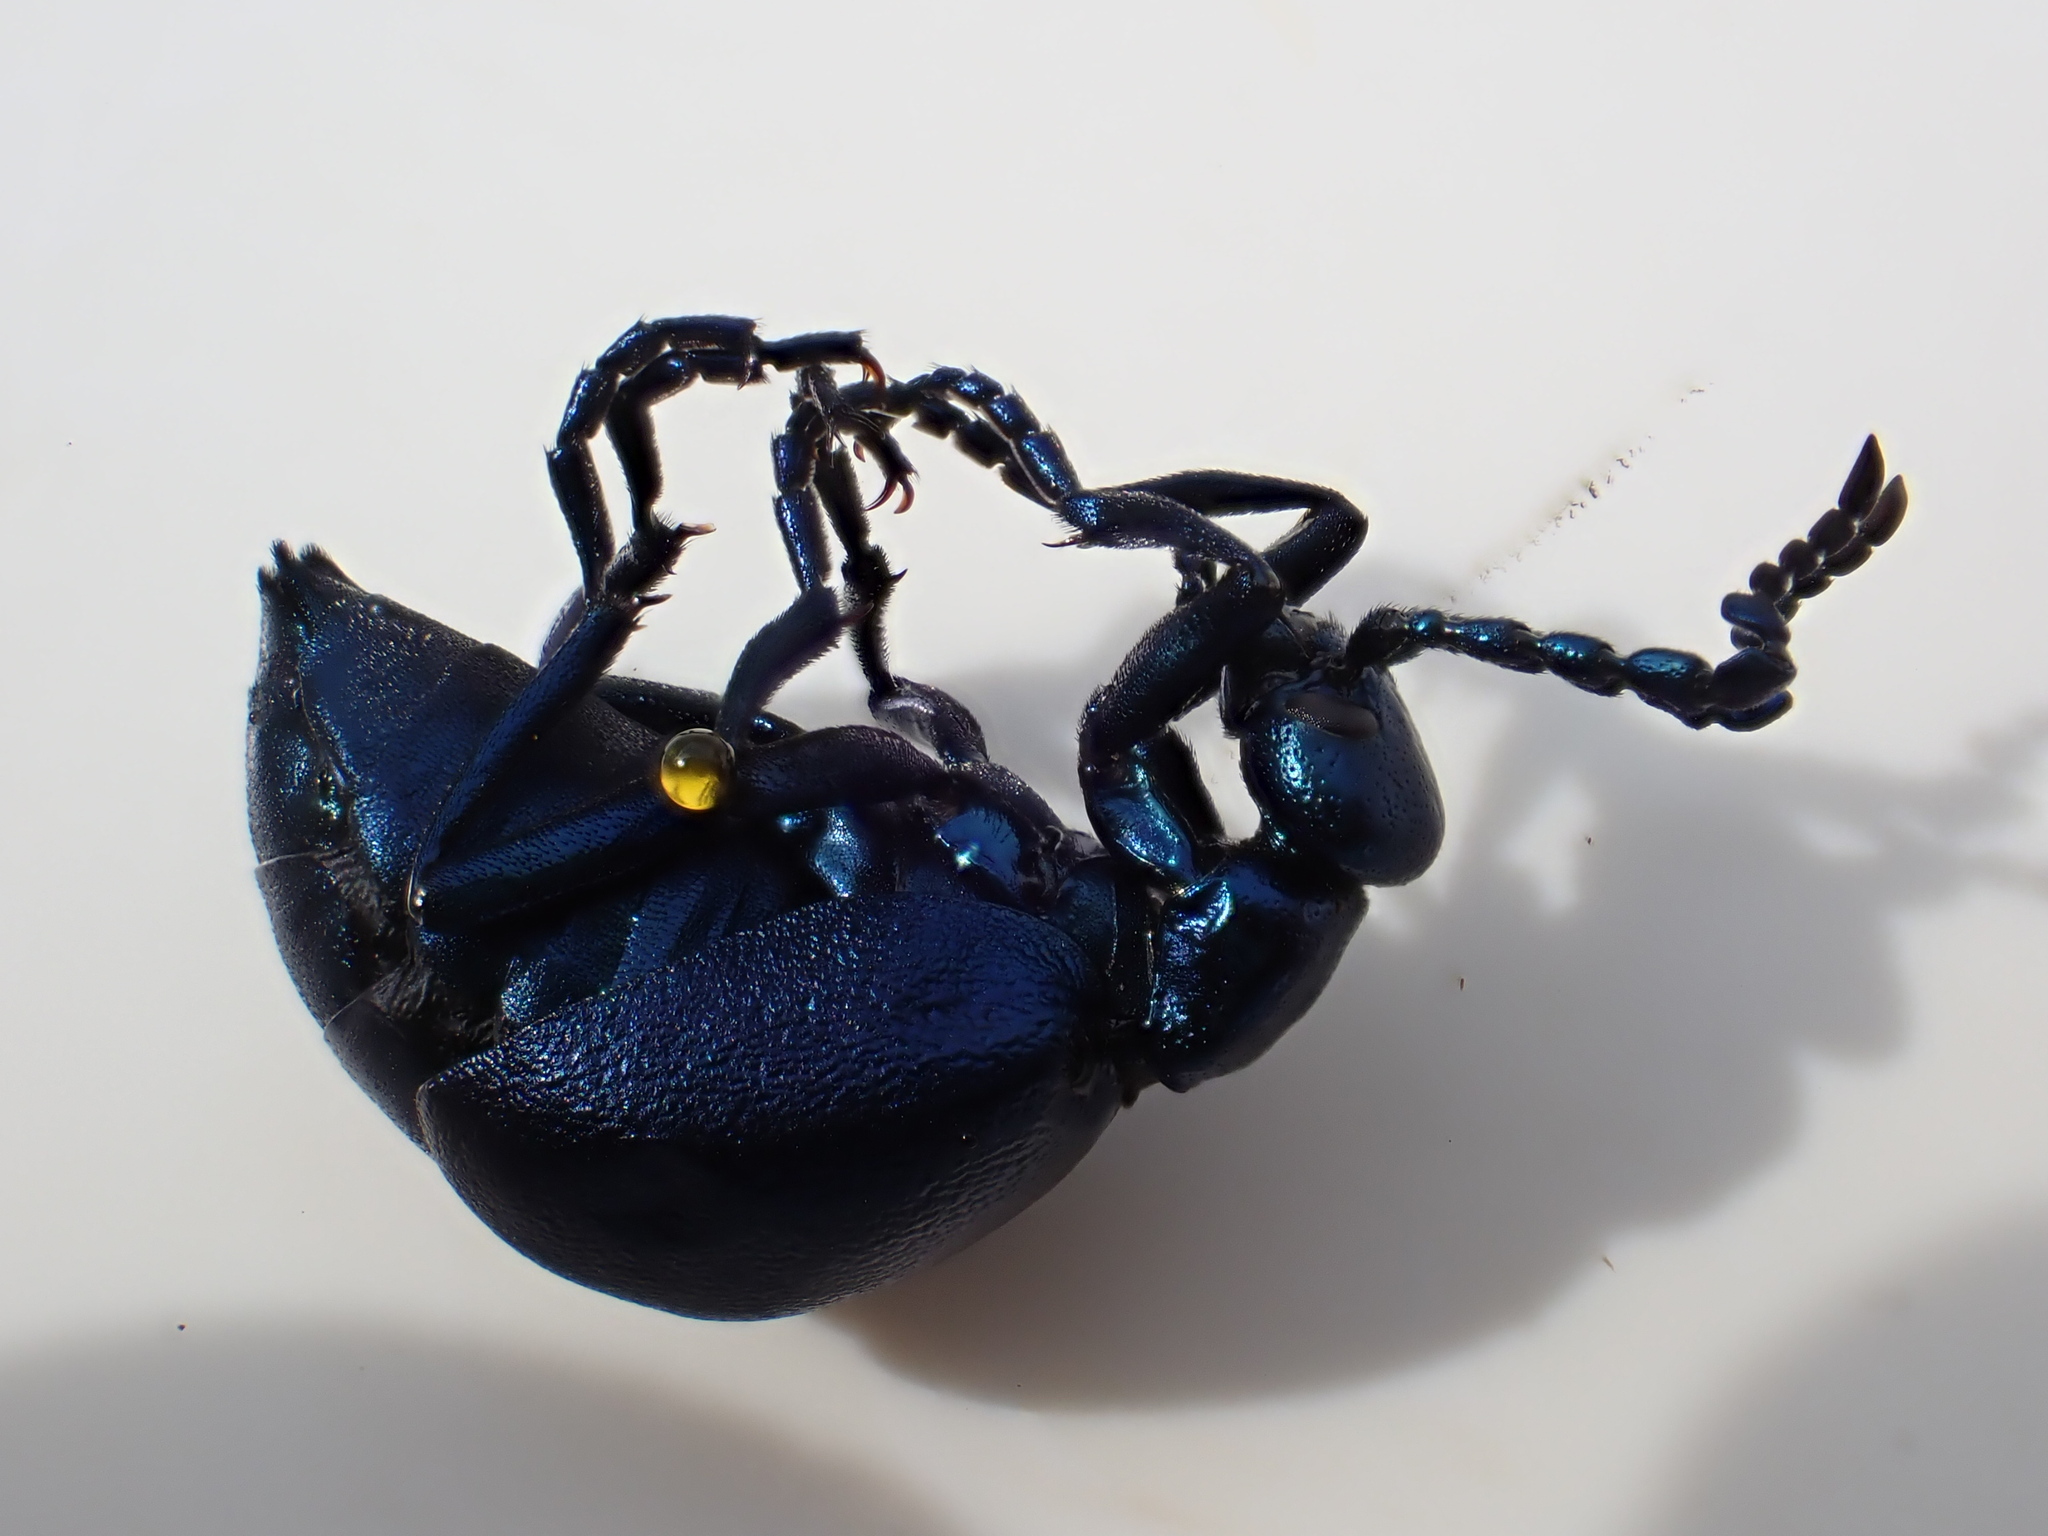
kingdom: Animalia
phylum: Arthropoda
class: Insecta
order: Coleoptera
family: Meloidae
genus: Meloe
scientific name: Meloe violaceus
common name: Violet oil-beetle
